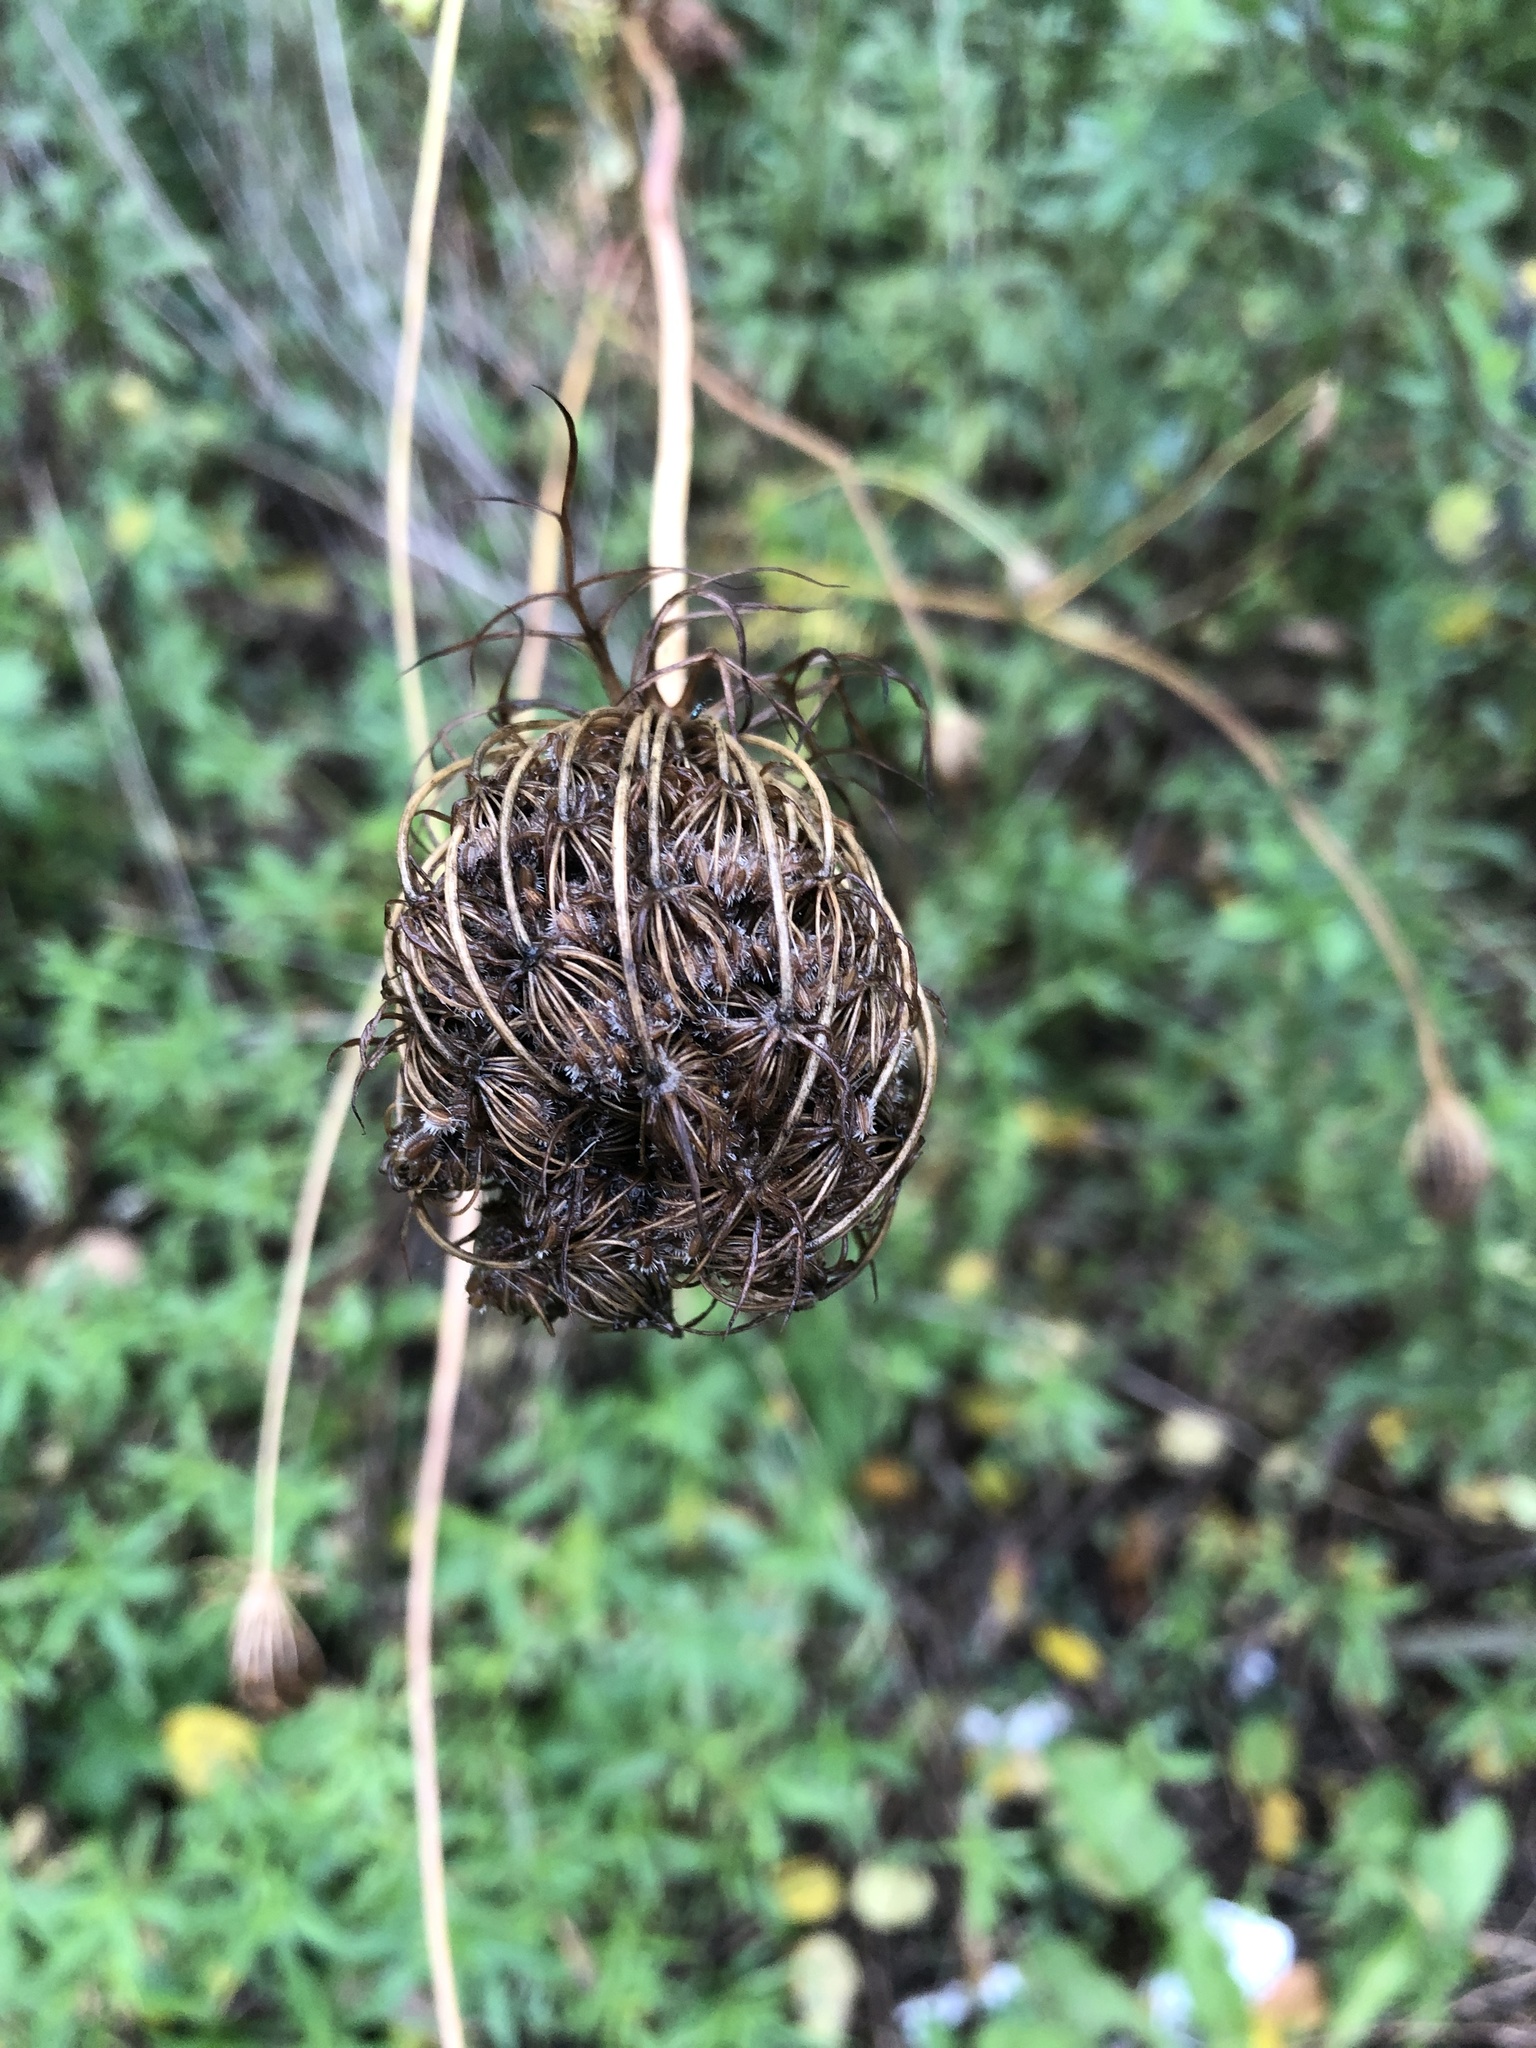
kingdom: Plantae
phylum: Tracheophyta
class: Magnoliopsida
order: Apiales
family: Apiaceae
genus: Daucus
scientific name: Daucus carota
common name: Wild carrot
